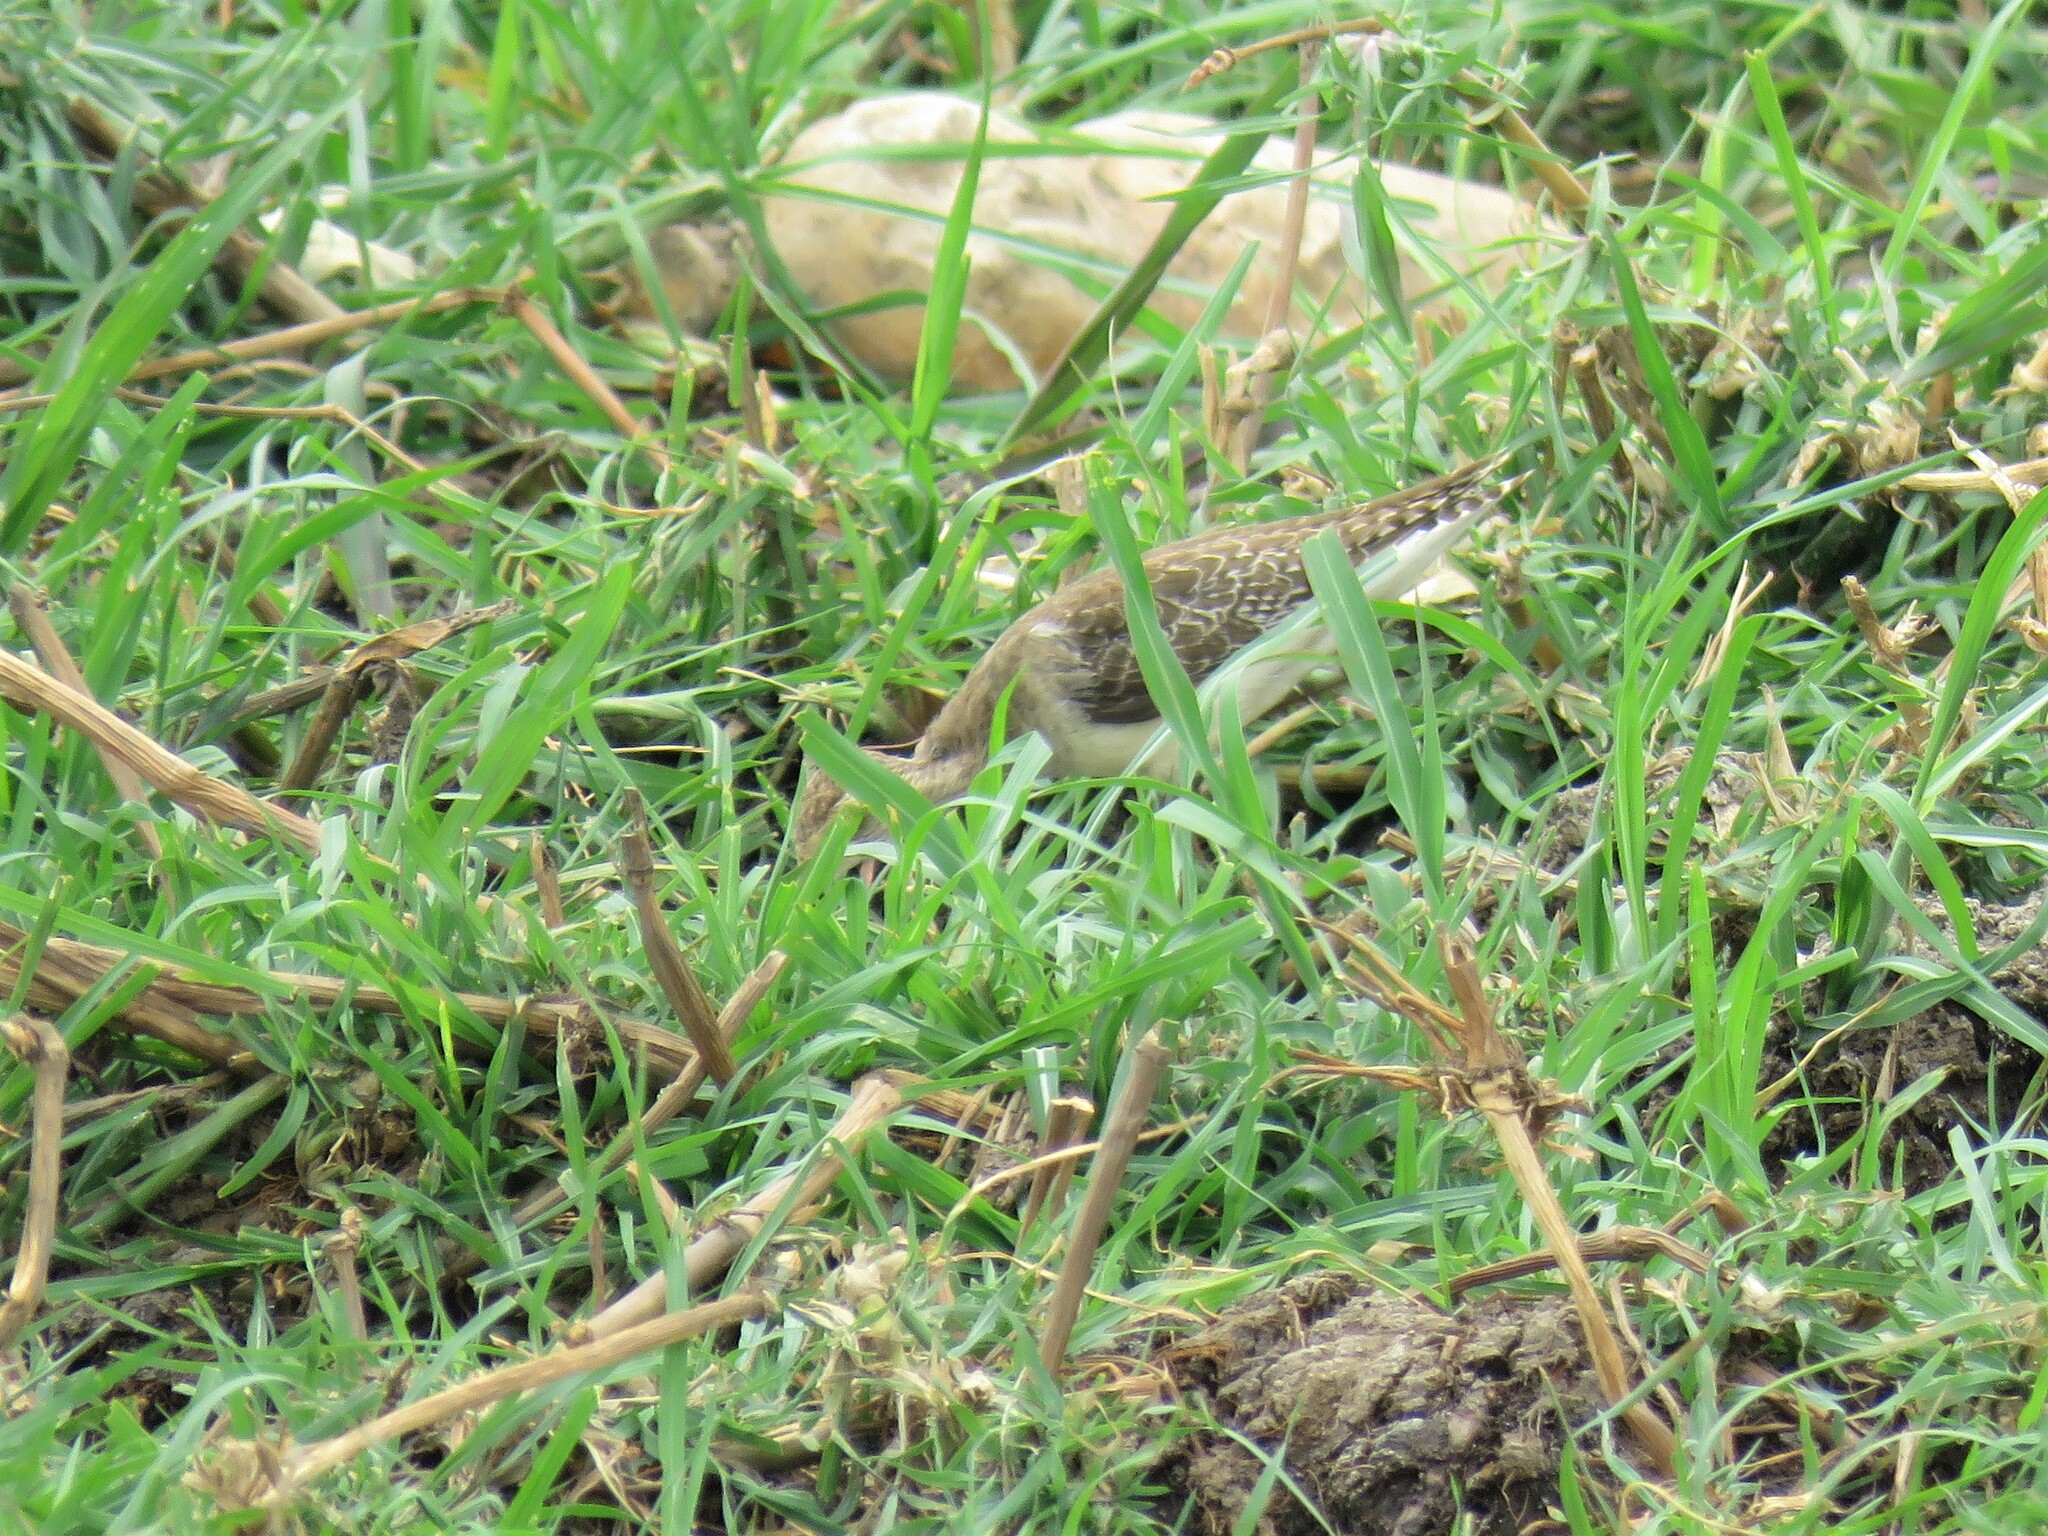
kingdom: Animalia
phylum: Chordata
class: Aves
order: Charadriiformes
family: Scolopacidae
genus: Tringa
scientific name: Tringa glareola
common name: Wood sandpiper
